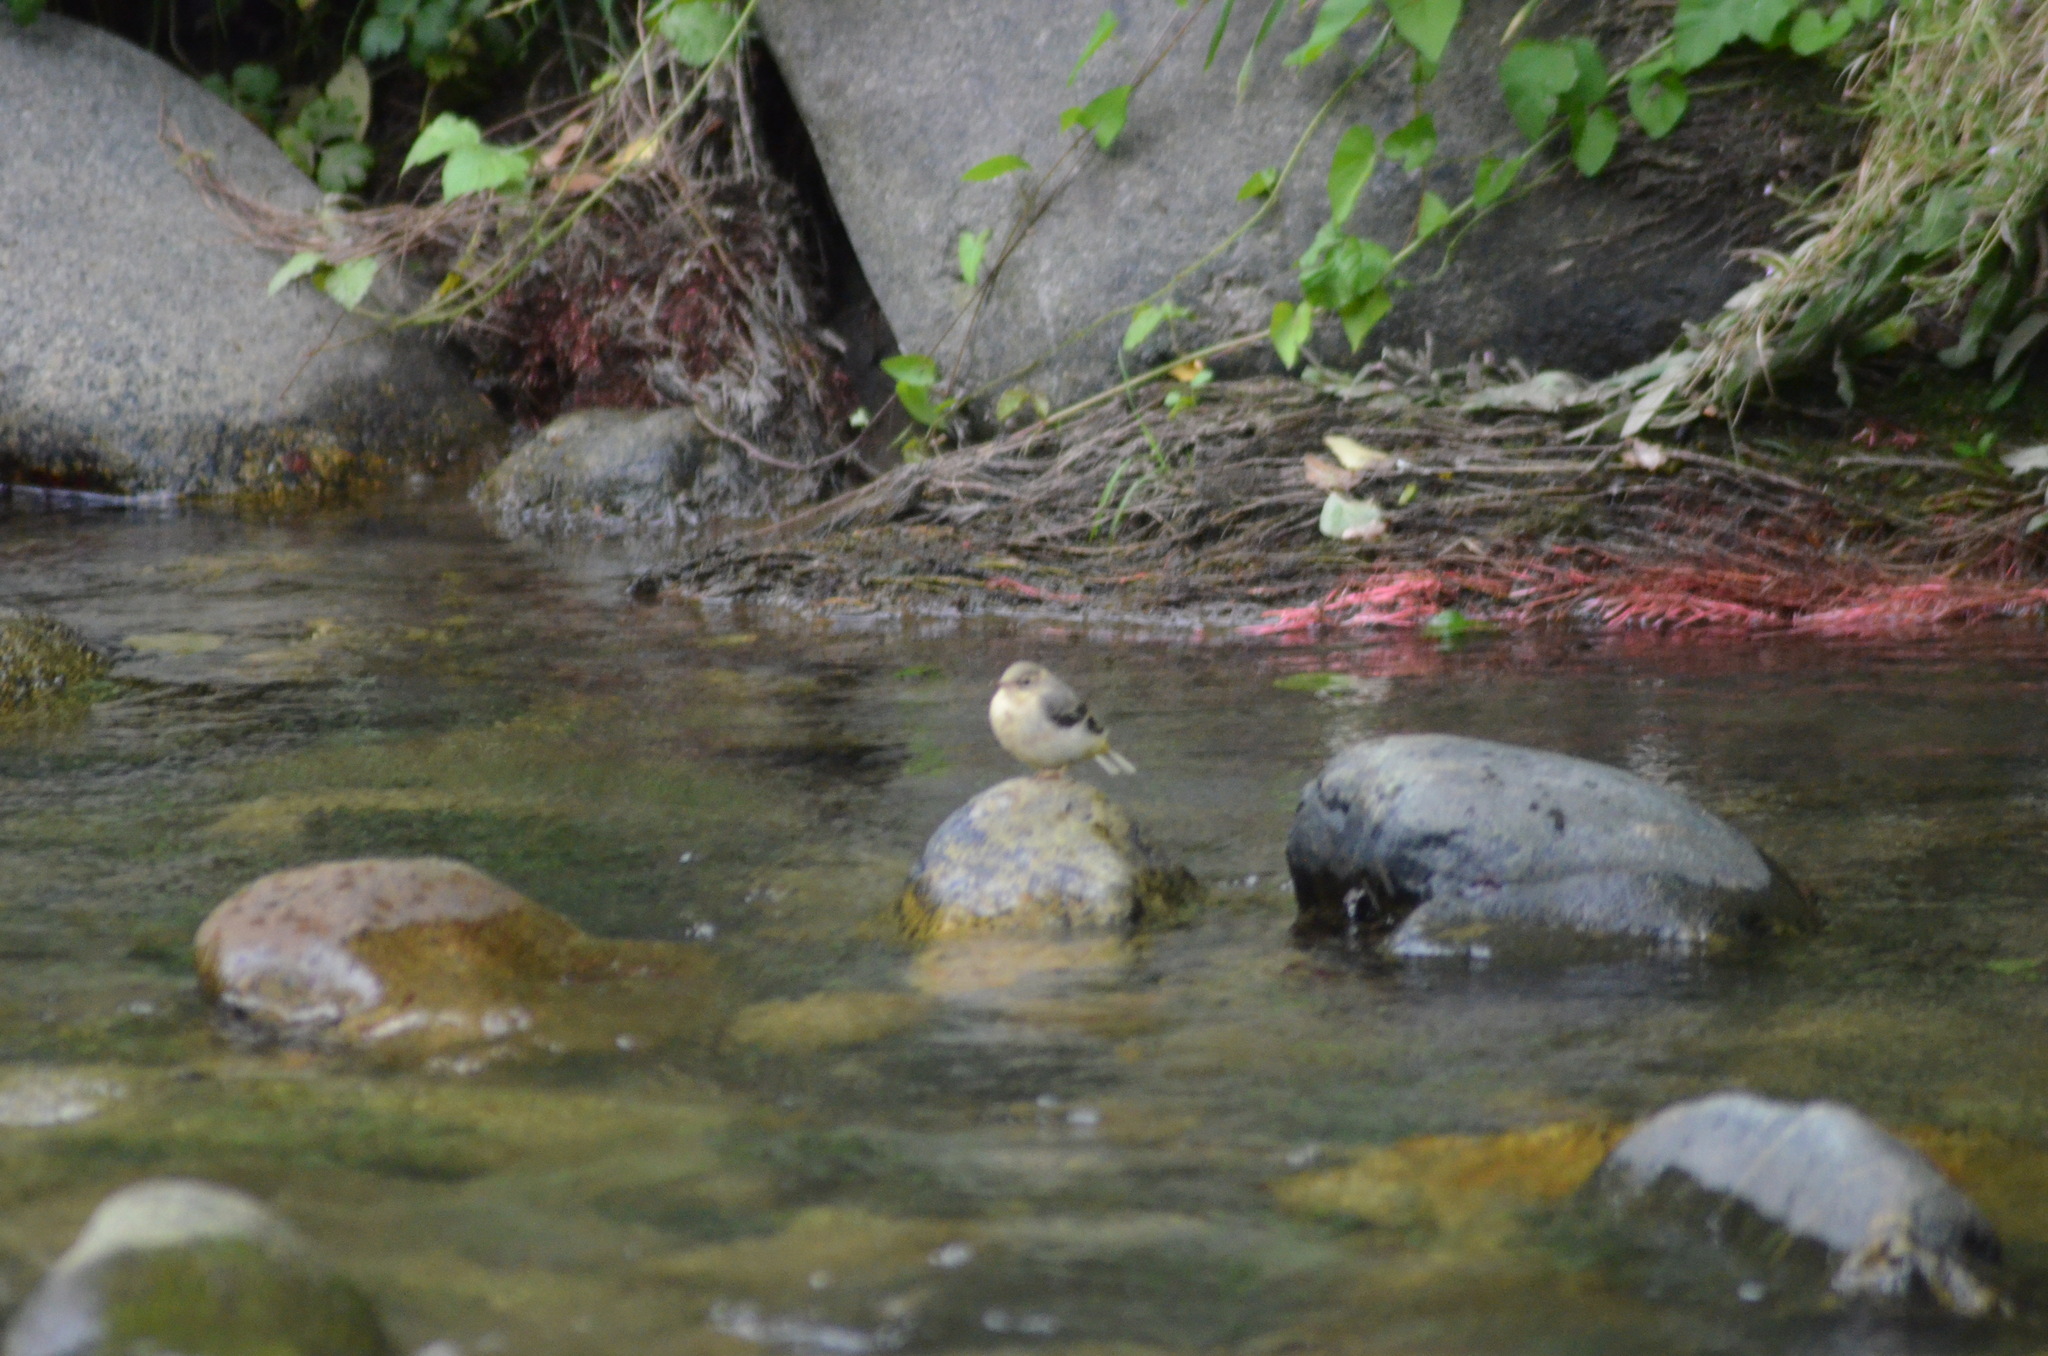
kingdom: Animalia
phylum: Chordata
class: Aves
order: Passeriformes
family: Motacillidae
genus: Motacilla
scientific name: Motacilla cinerea
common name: Grey wagtail
